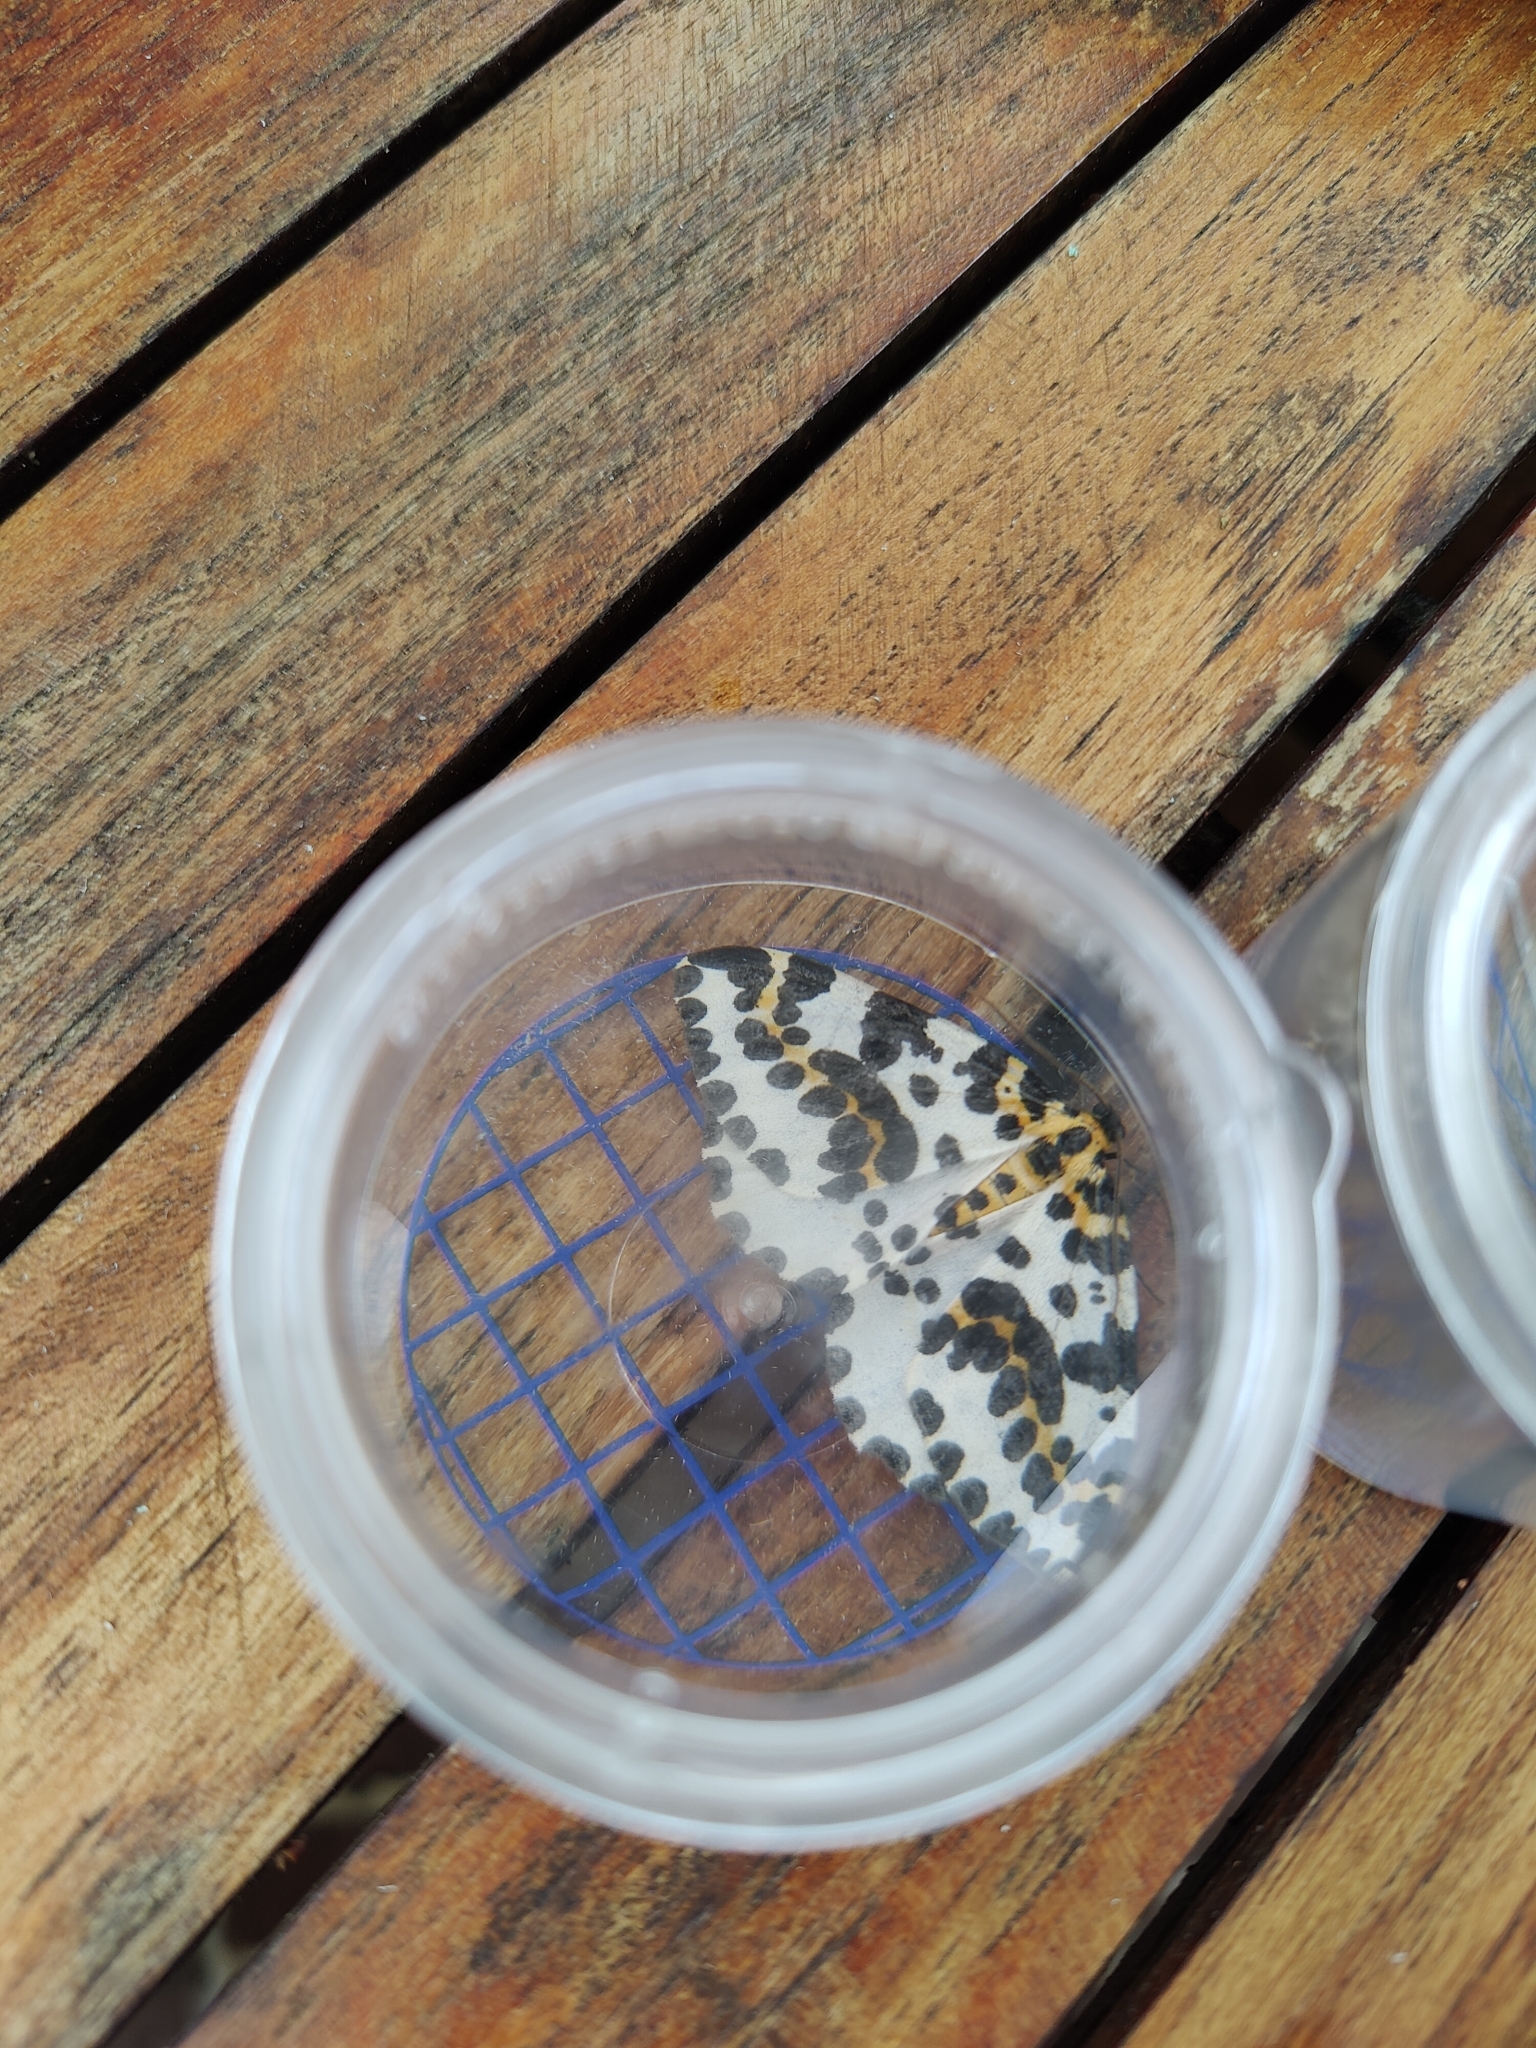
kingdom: Animalia
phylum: Arthropoda
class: Insecta
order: Lepidoptera
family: Geometridae
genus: Abraxas
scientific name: Abraxas grossulariata
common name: Magpie
